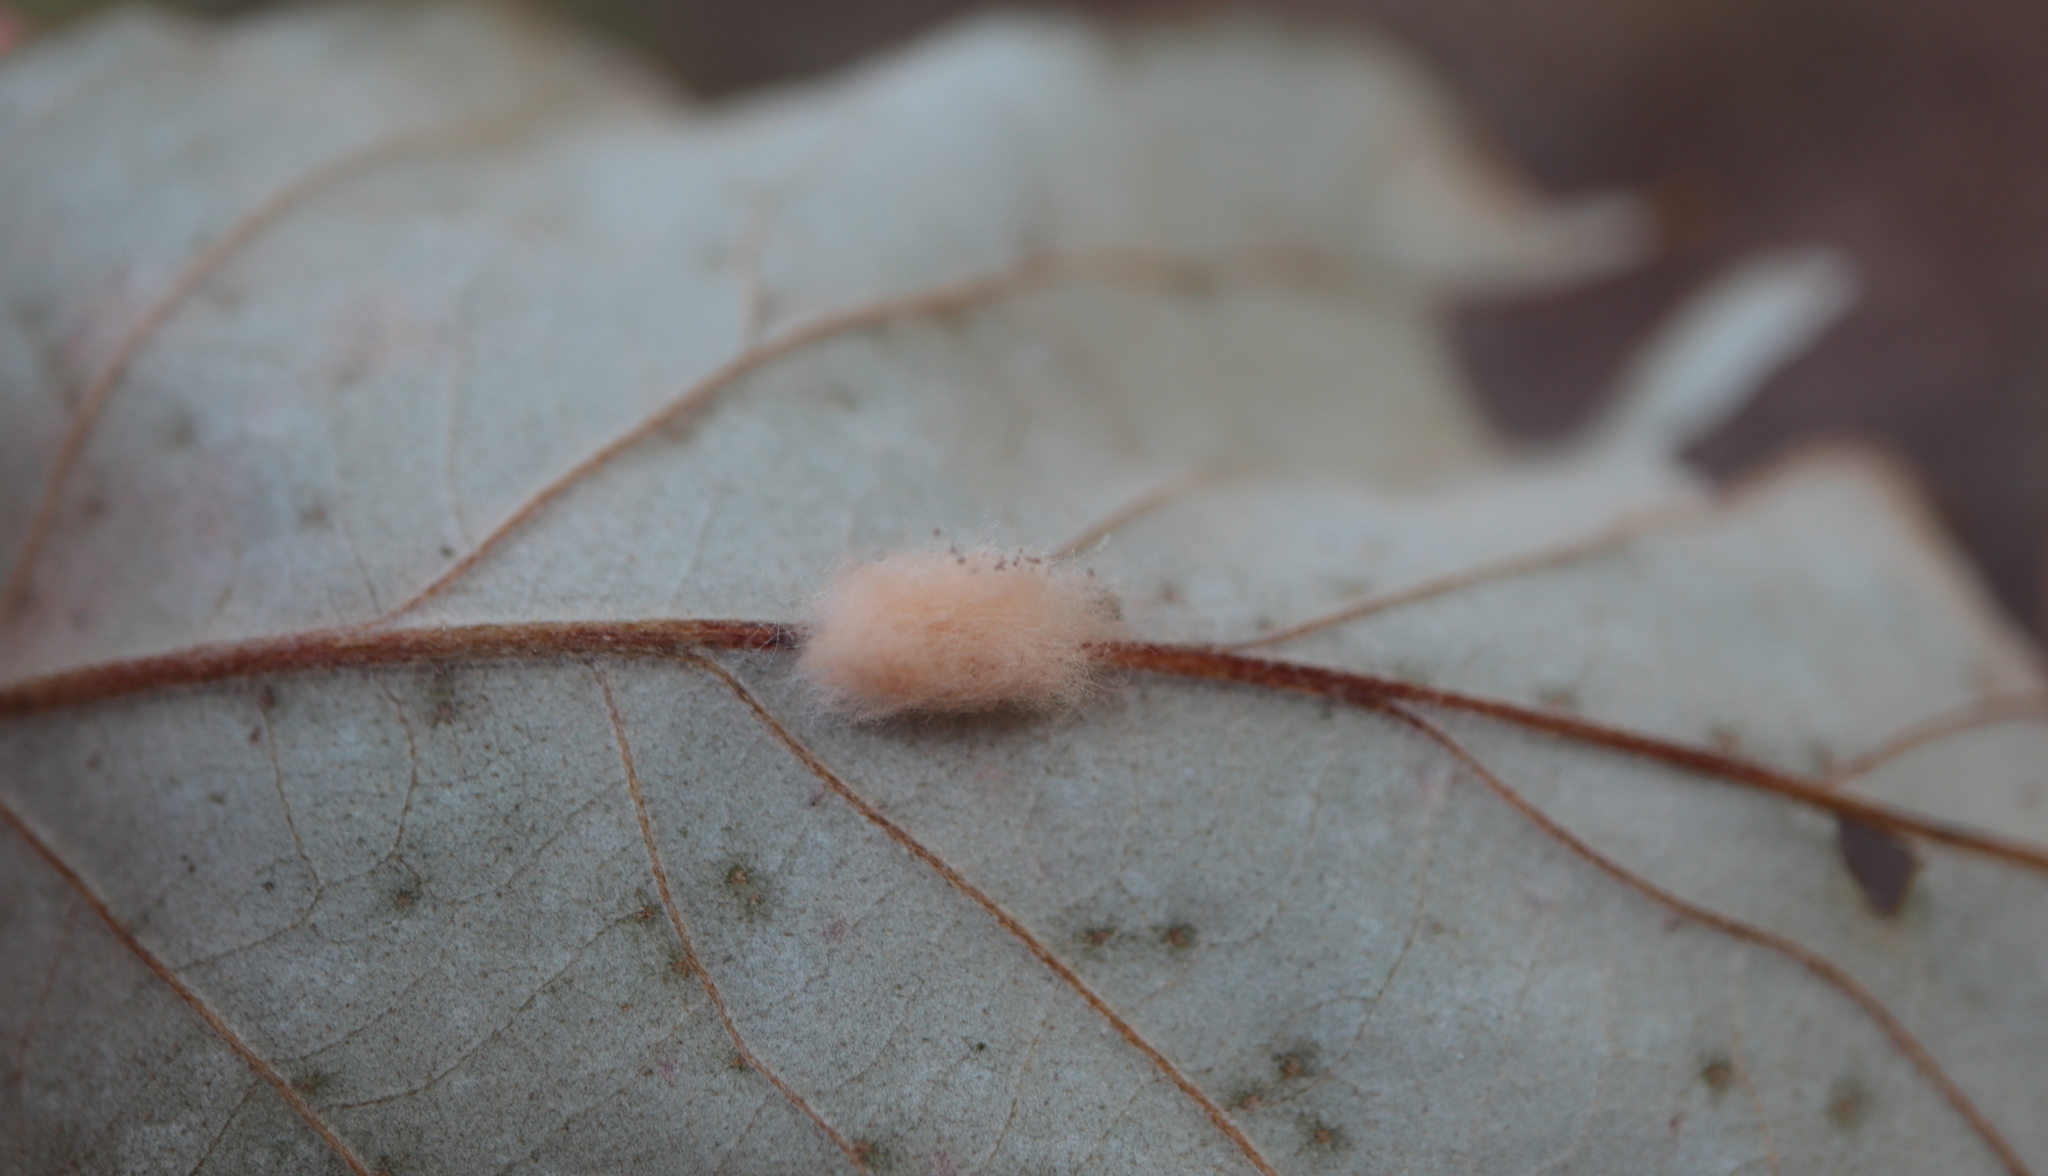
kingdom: Animalia
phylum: Arthropoda
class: Insecta
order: Hymenoptera
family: Cynipidae
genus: Andricus
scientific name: Andricus Druon ignotum
